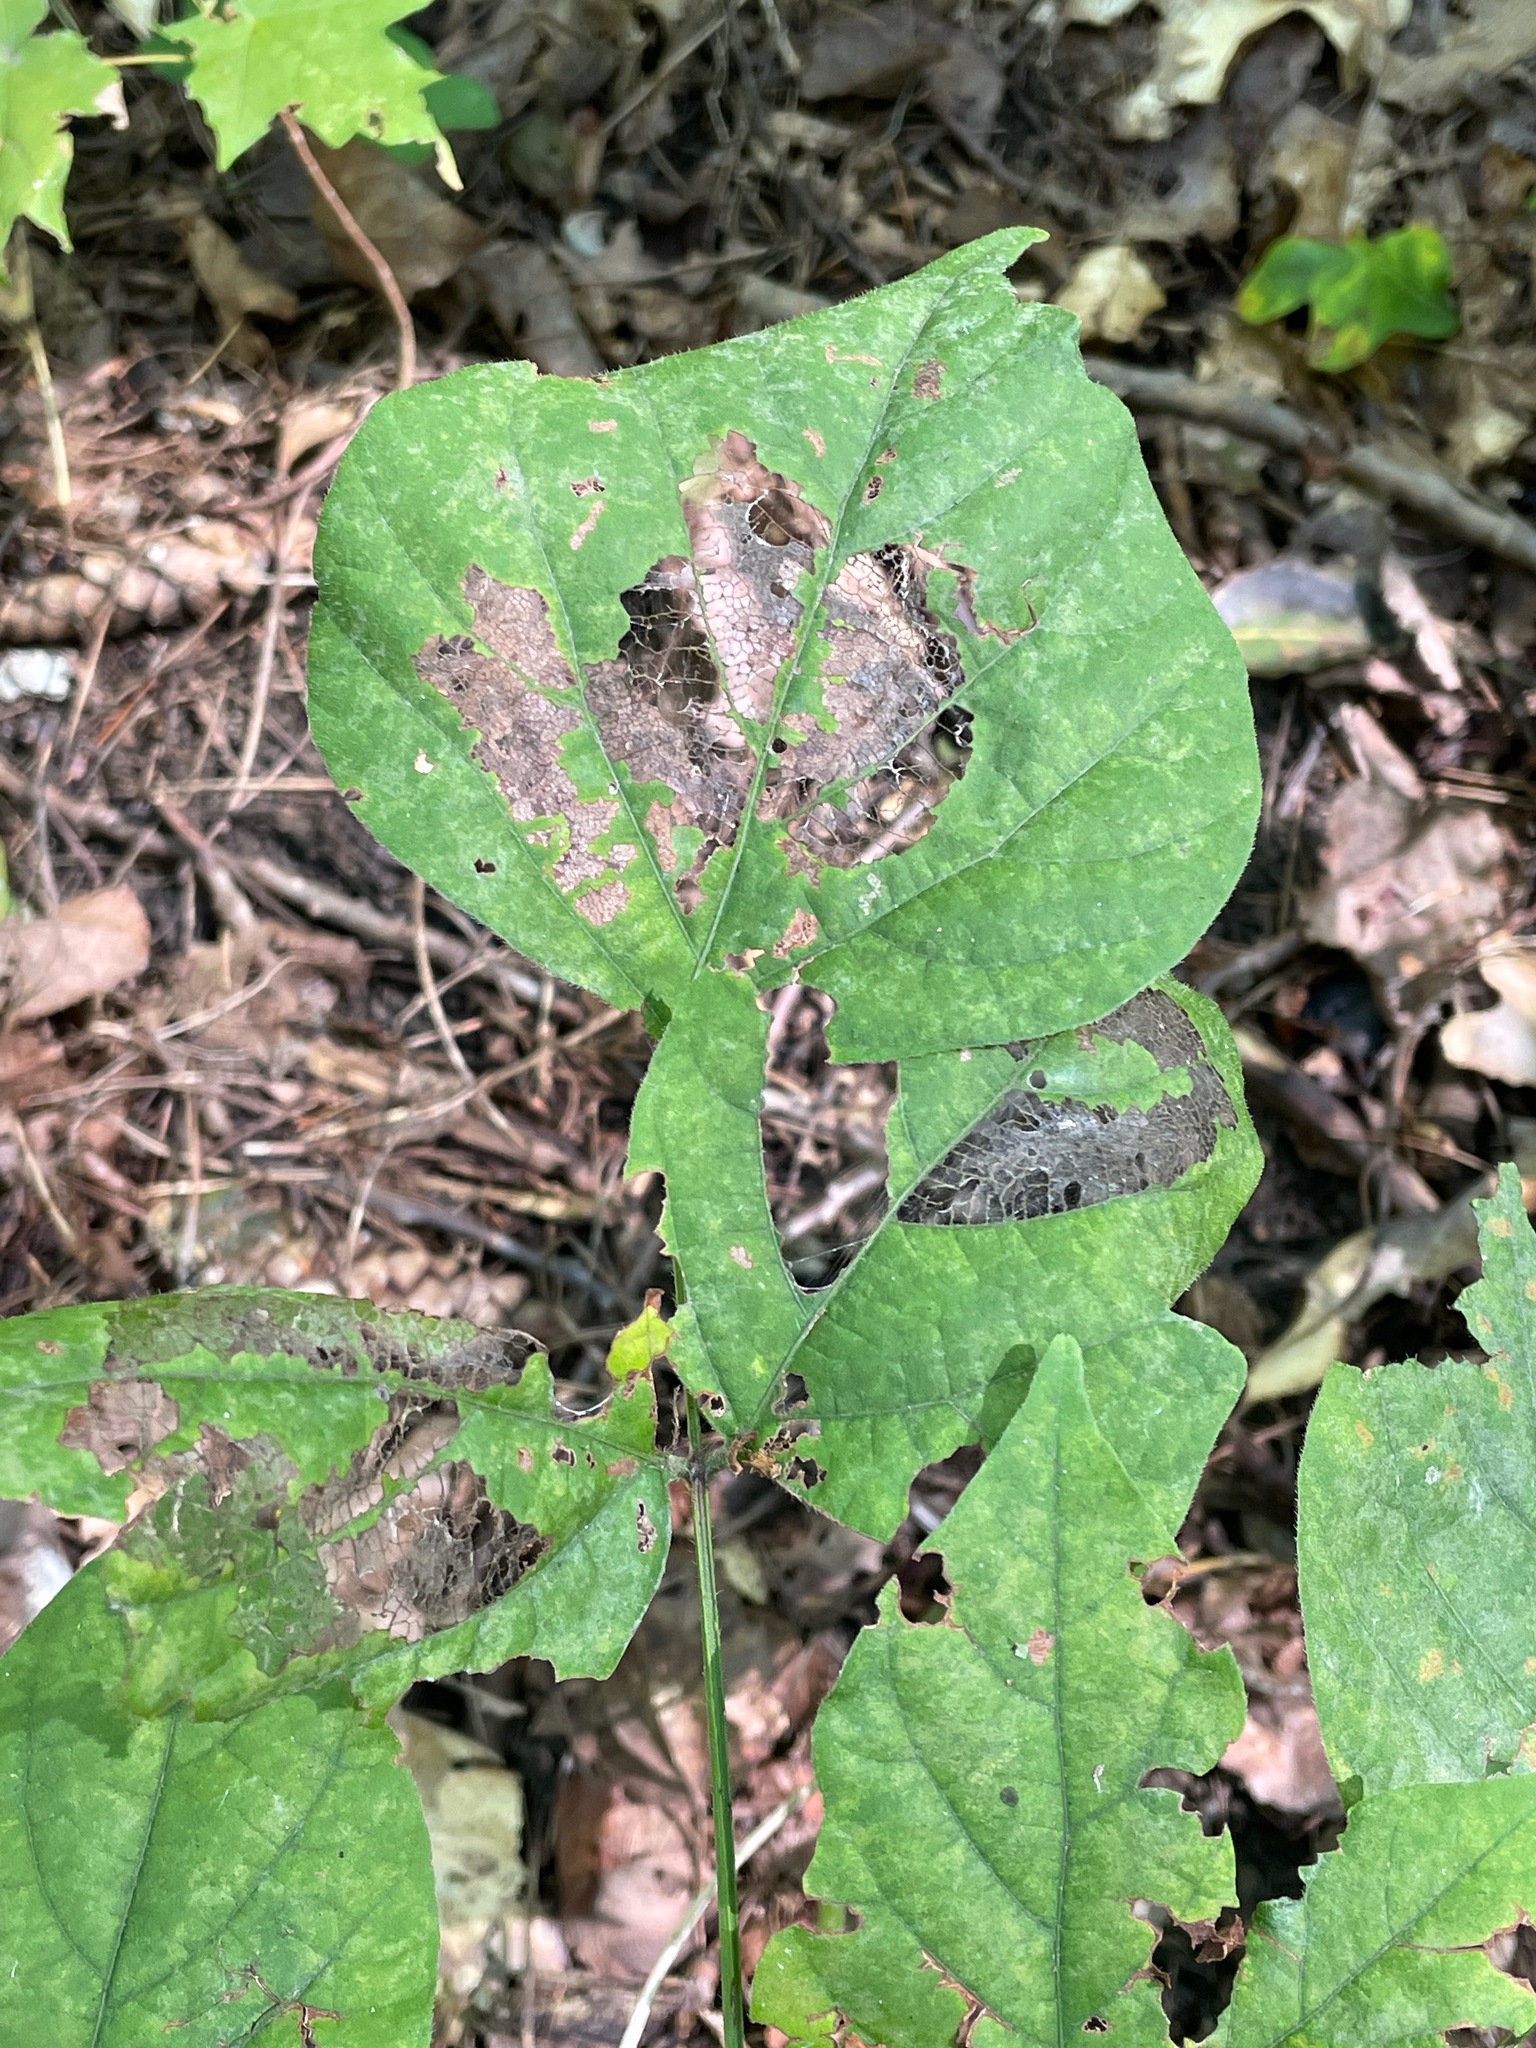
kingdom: Plantae
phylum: Tracheophyta
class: Magnoliopsida
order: Fabales
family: Fabaceae
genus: Hylodesmum
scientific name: Hylodesmum glutinosum
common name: Clustered-leaved tick-trefoil
